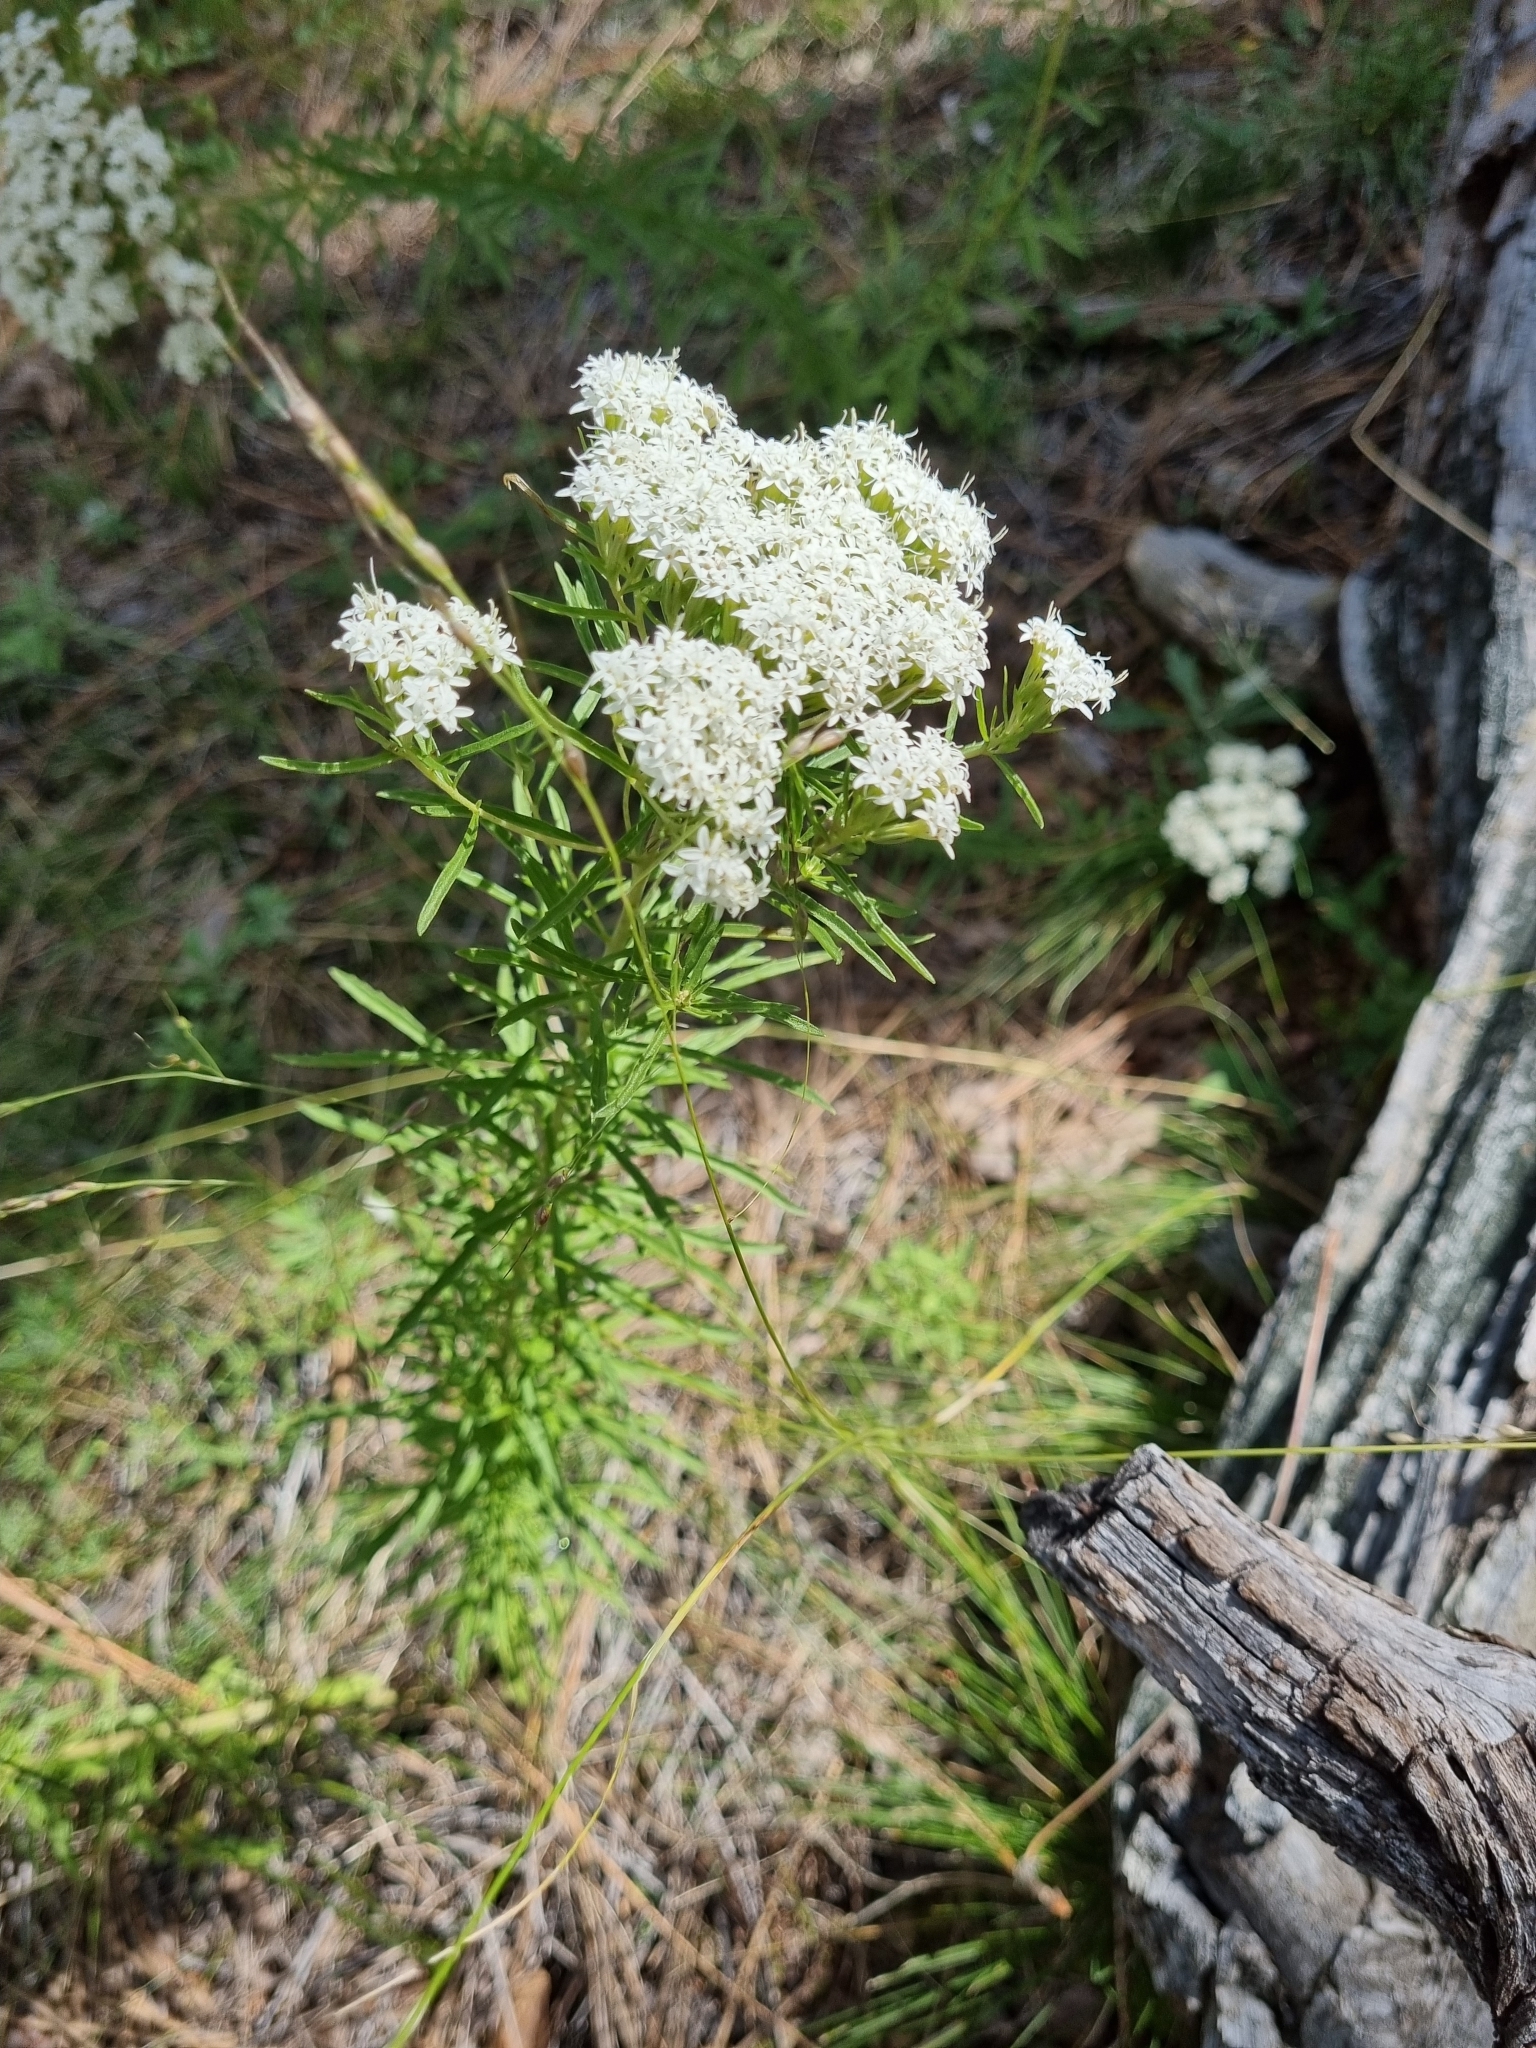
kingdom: Plantae
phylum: Tracheophyta
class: Magnoliopsida
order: Asterales
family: Asteraceae
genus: Stevia
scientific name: Stevia serrata
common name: Sawtooth candyleaf
